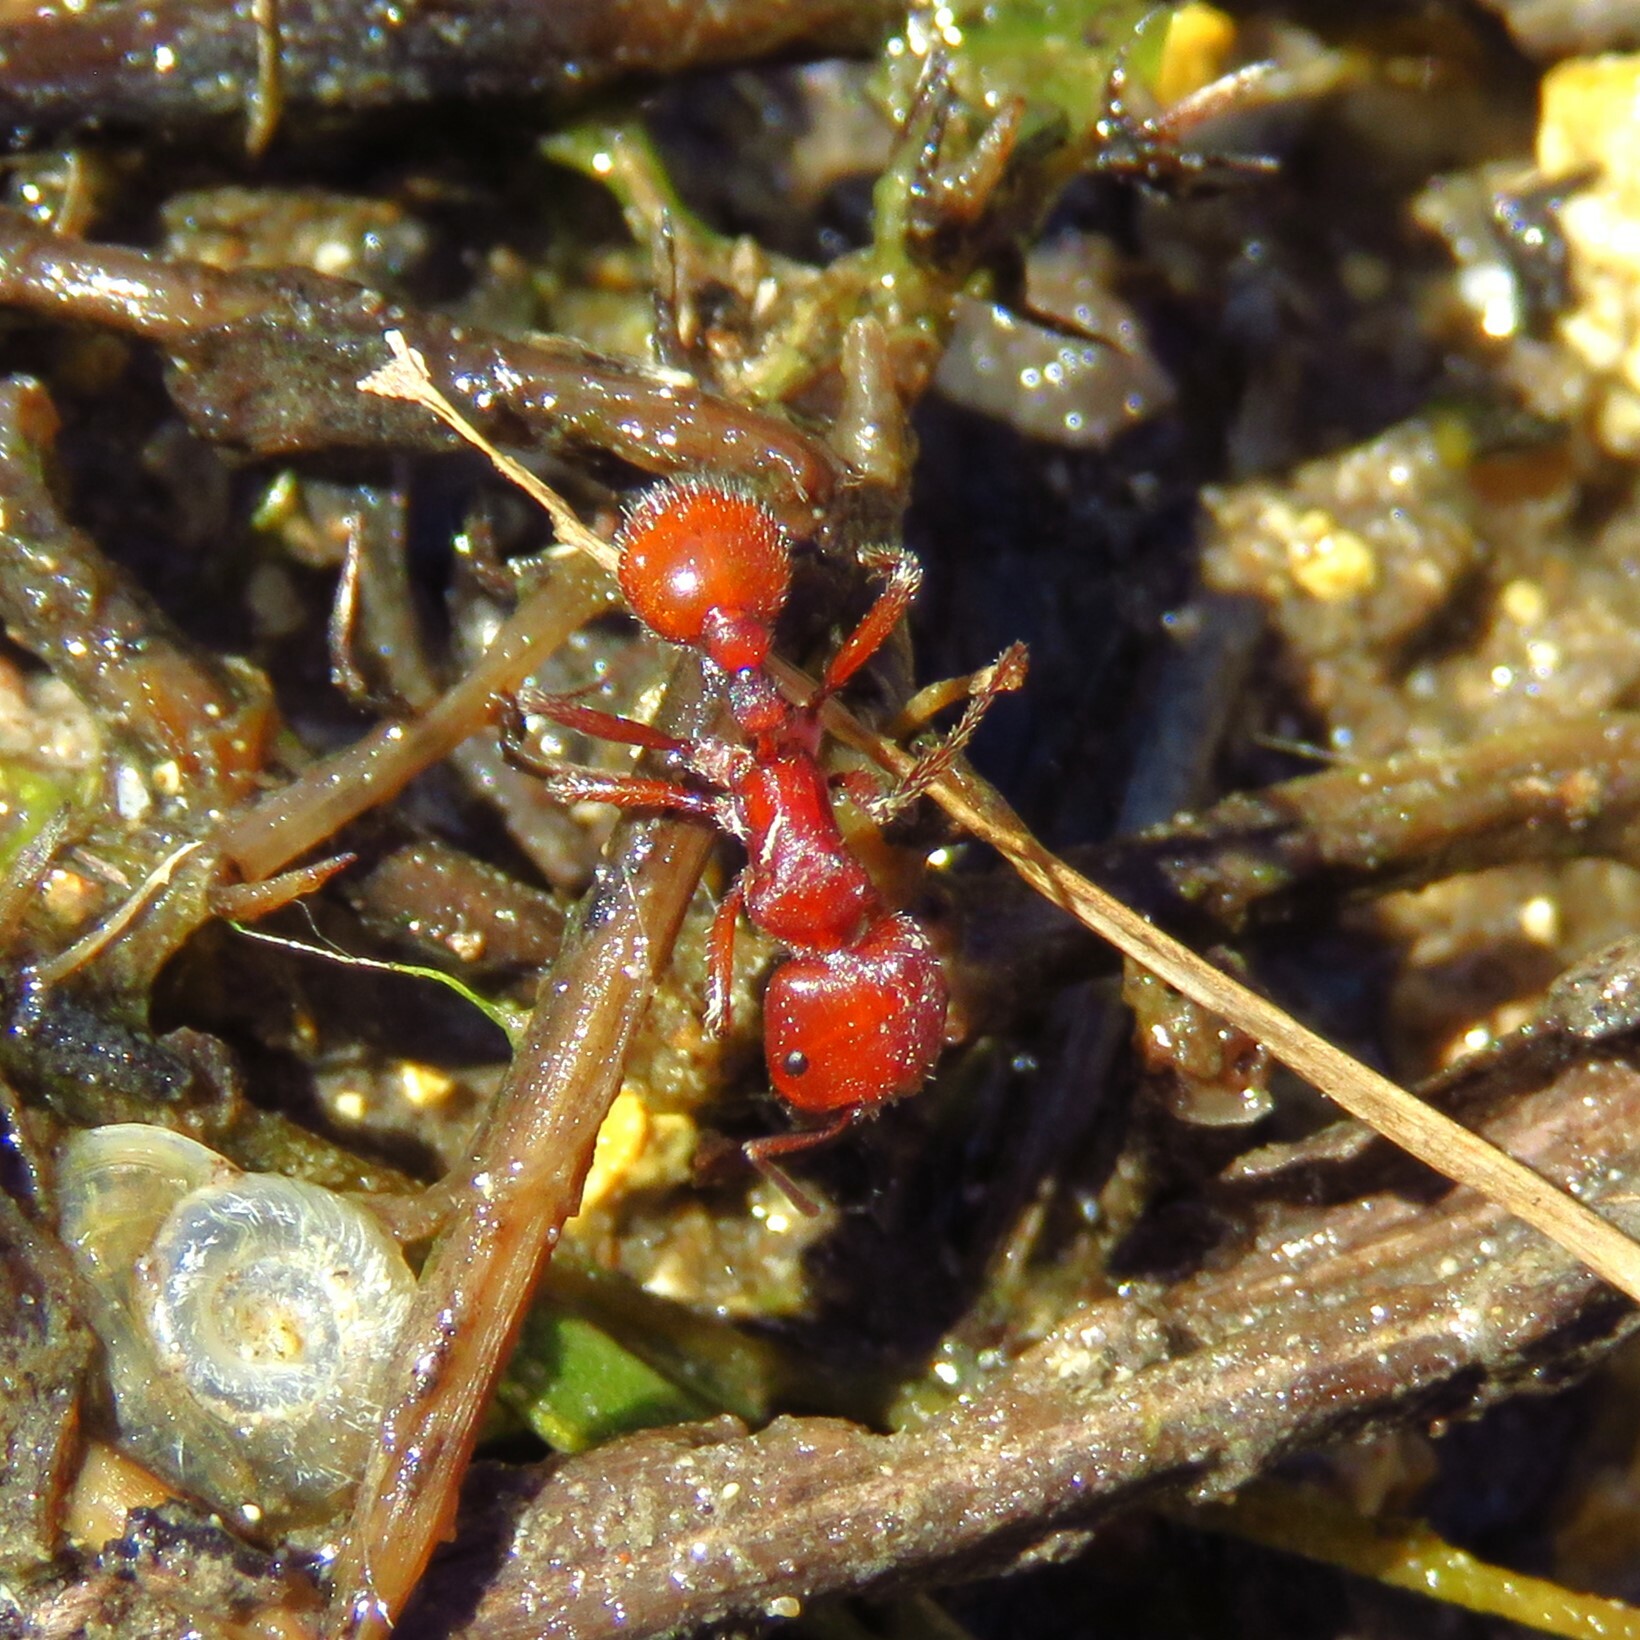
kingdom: Animalia
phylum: Arthropoda
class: Insecta
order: Hymenoptera
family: Formicidae
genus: Pogonomyrmex
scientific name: Pogonomyrmex barbatus
